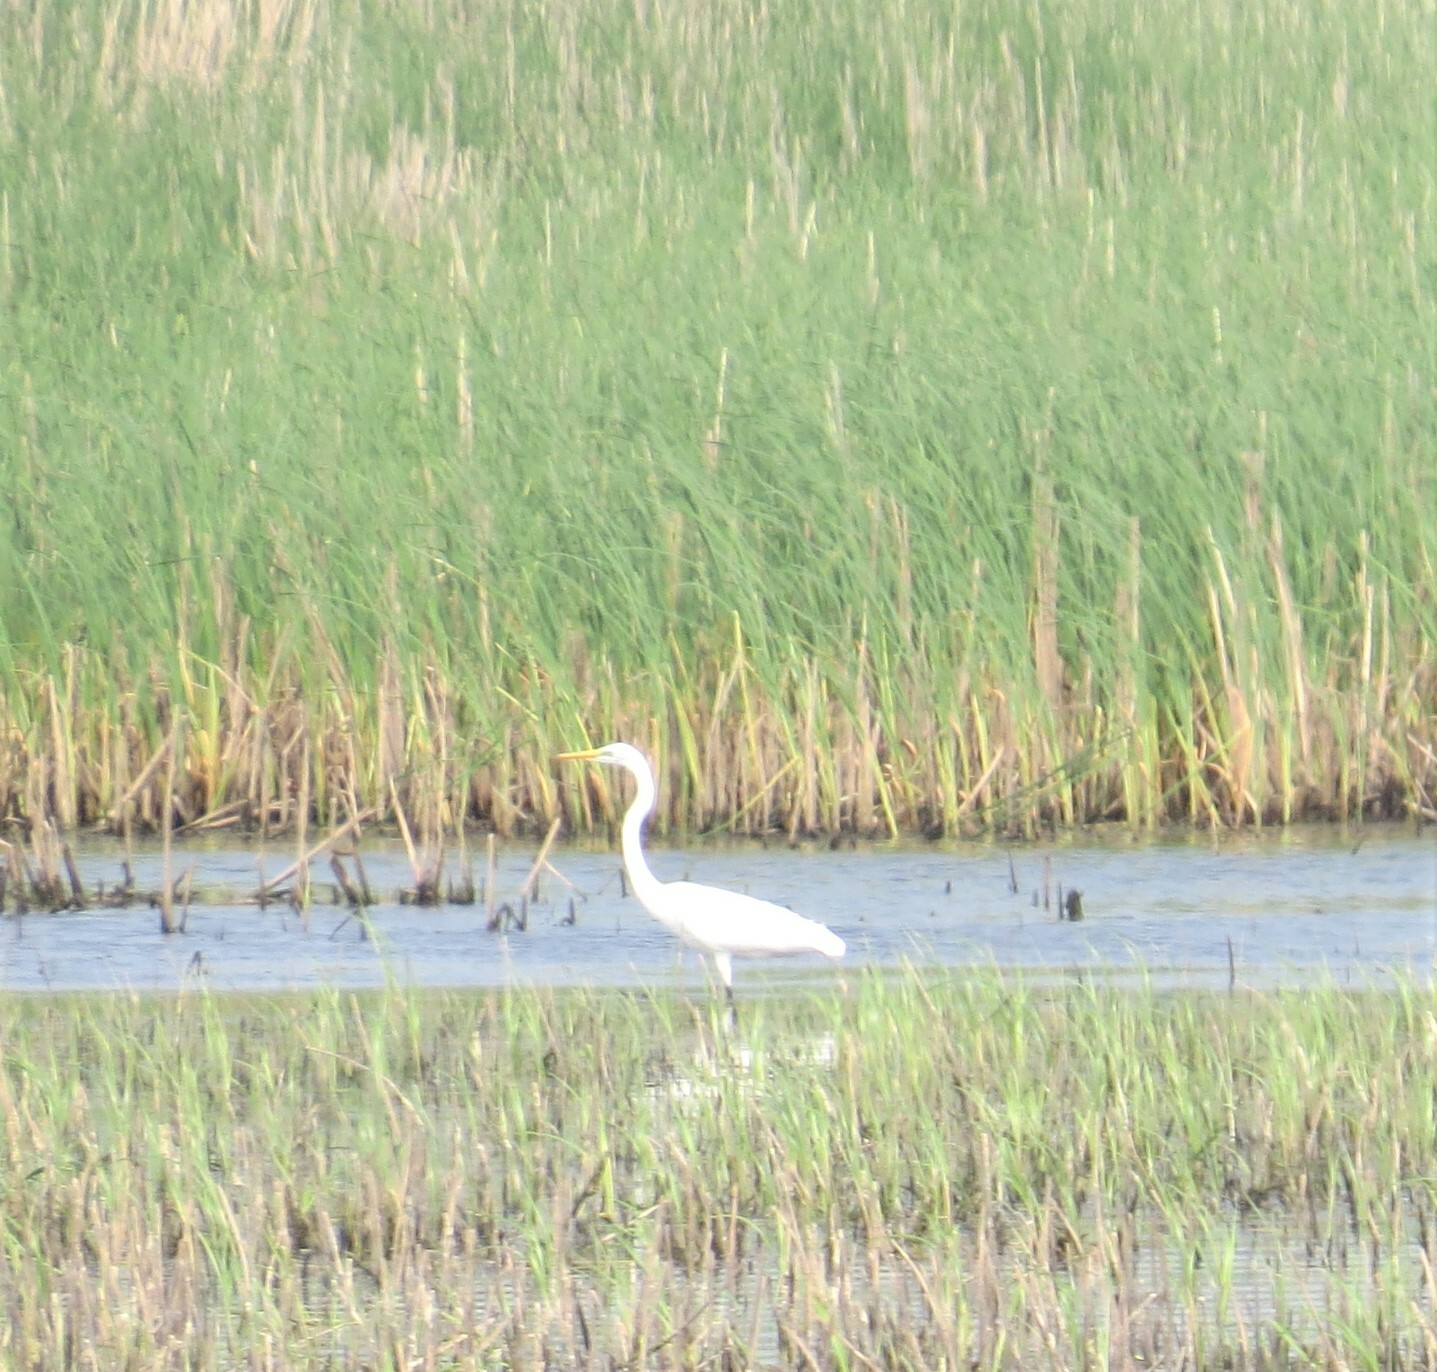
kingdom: Animalia
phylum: Chordata
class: Aves
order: Pelecaniformes
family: Ardeidae
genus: Ardea
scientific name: Ardea alba
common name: Great egret
